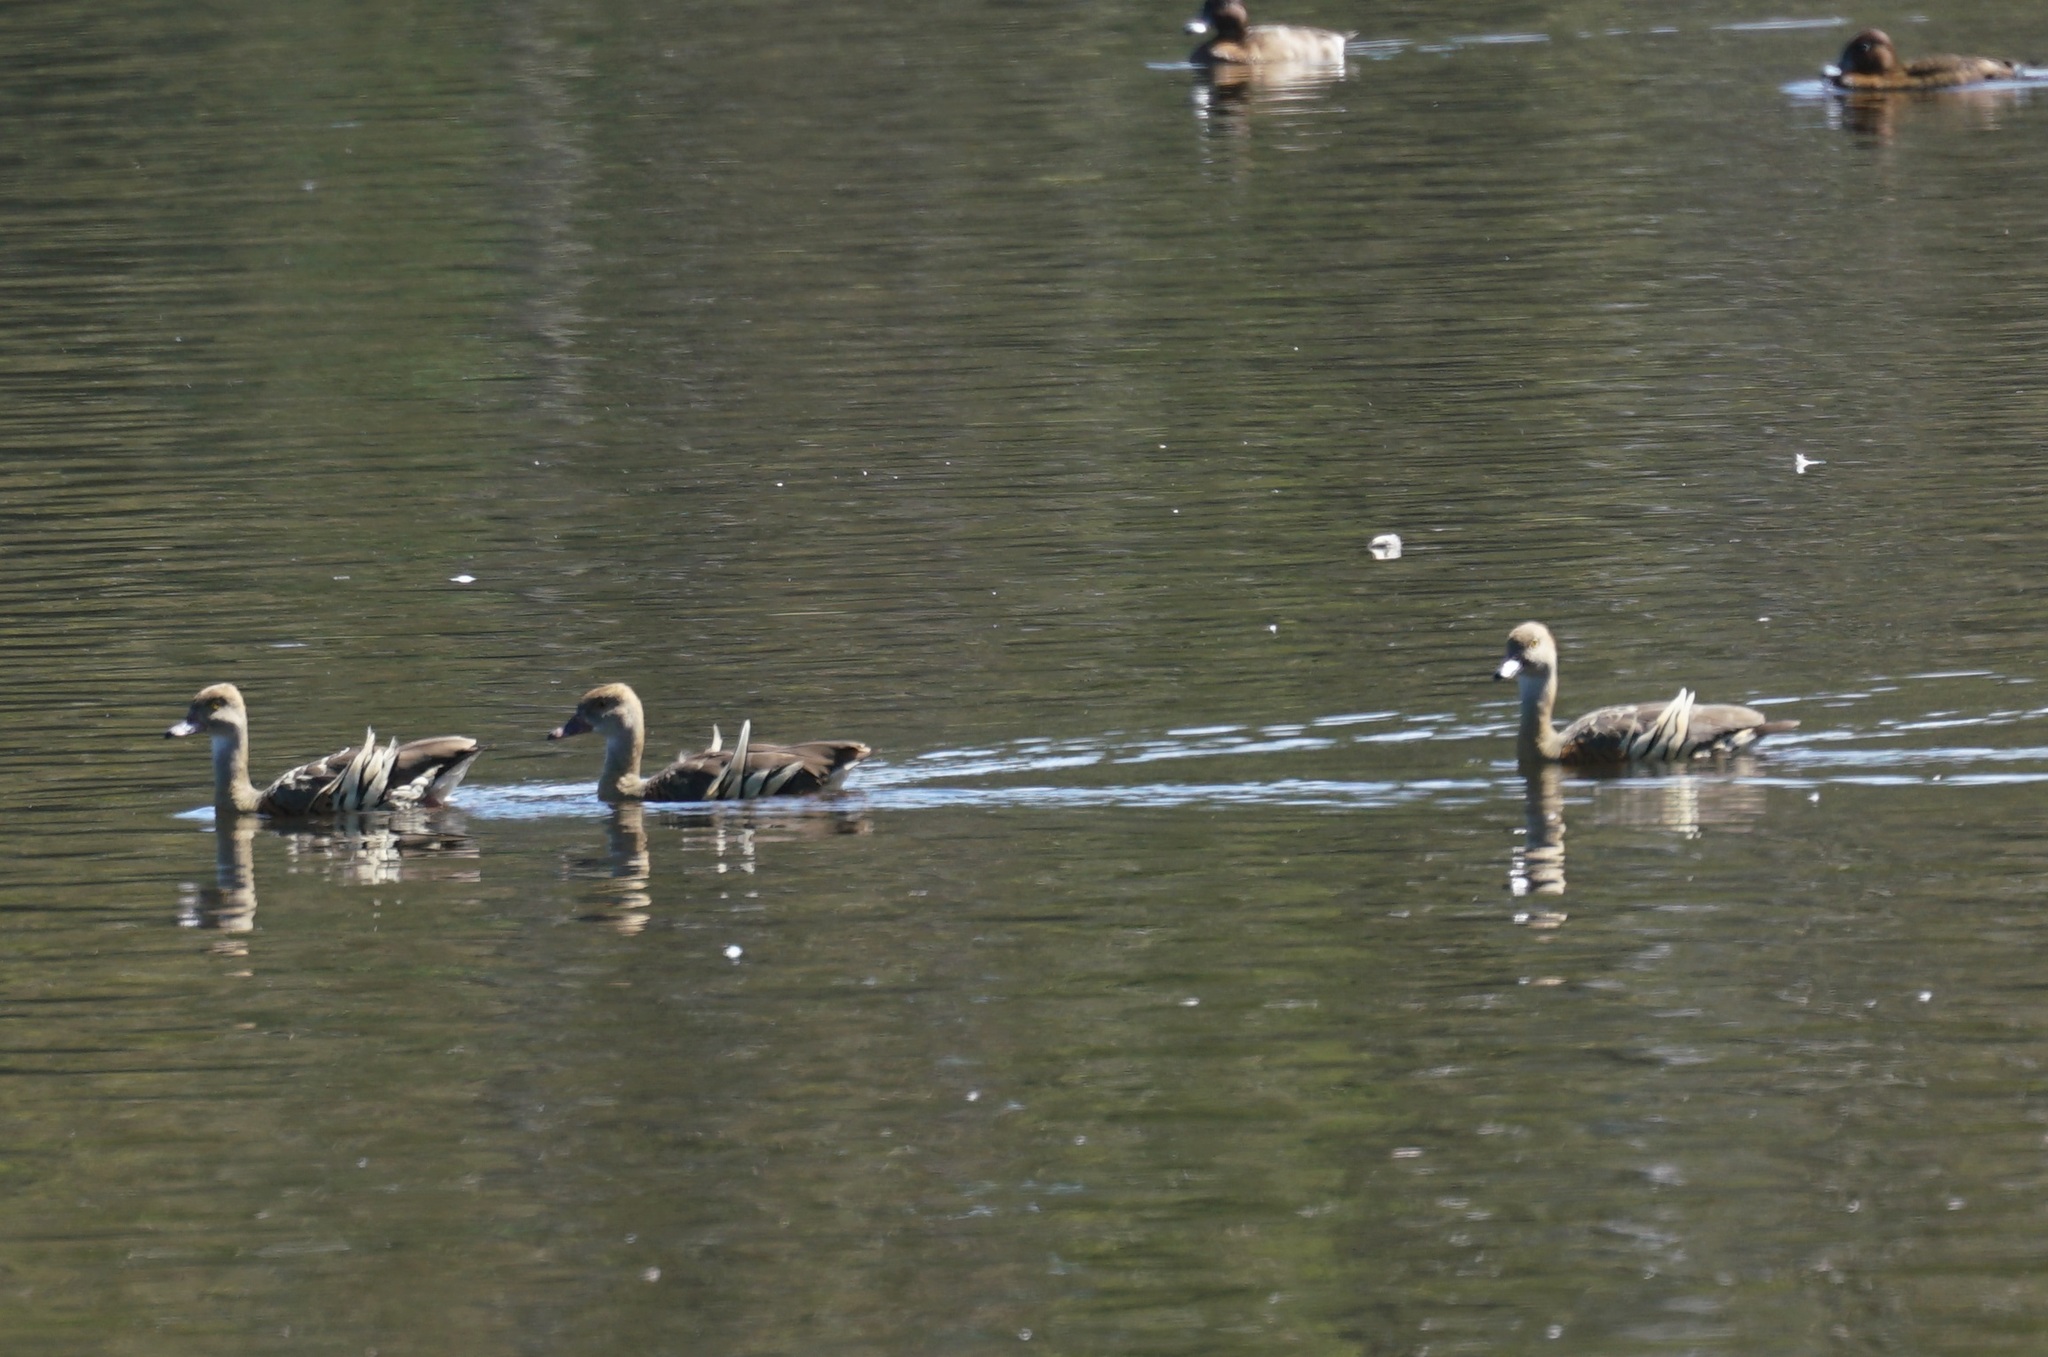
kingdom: Animalia
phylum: Chordata
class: Aves
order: Anseriformes
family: Anatidae
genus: Dendrocygna
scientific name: Dendrocygna eytoni
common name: Plumed whistling-duck
